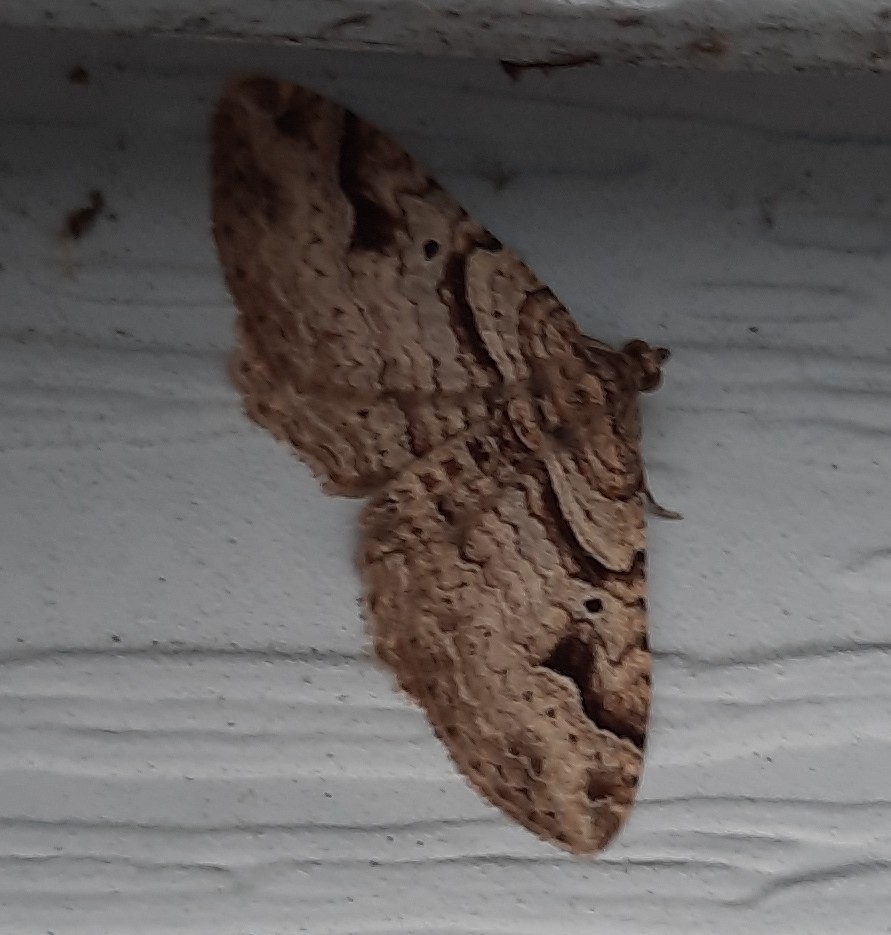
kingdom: Animalia
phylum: Arthropoda
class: Insecta
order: Lepidoptera
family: Geometridae
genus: Costaconvexa
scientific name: Costaconvexa centrostrigaria
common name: Bent-line carpet
